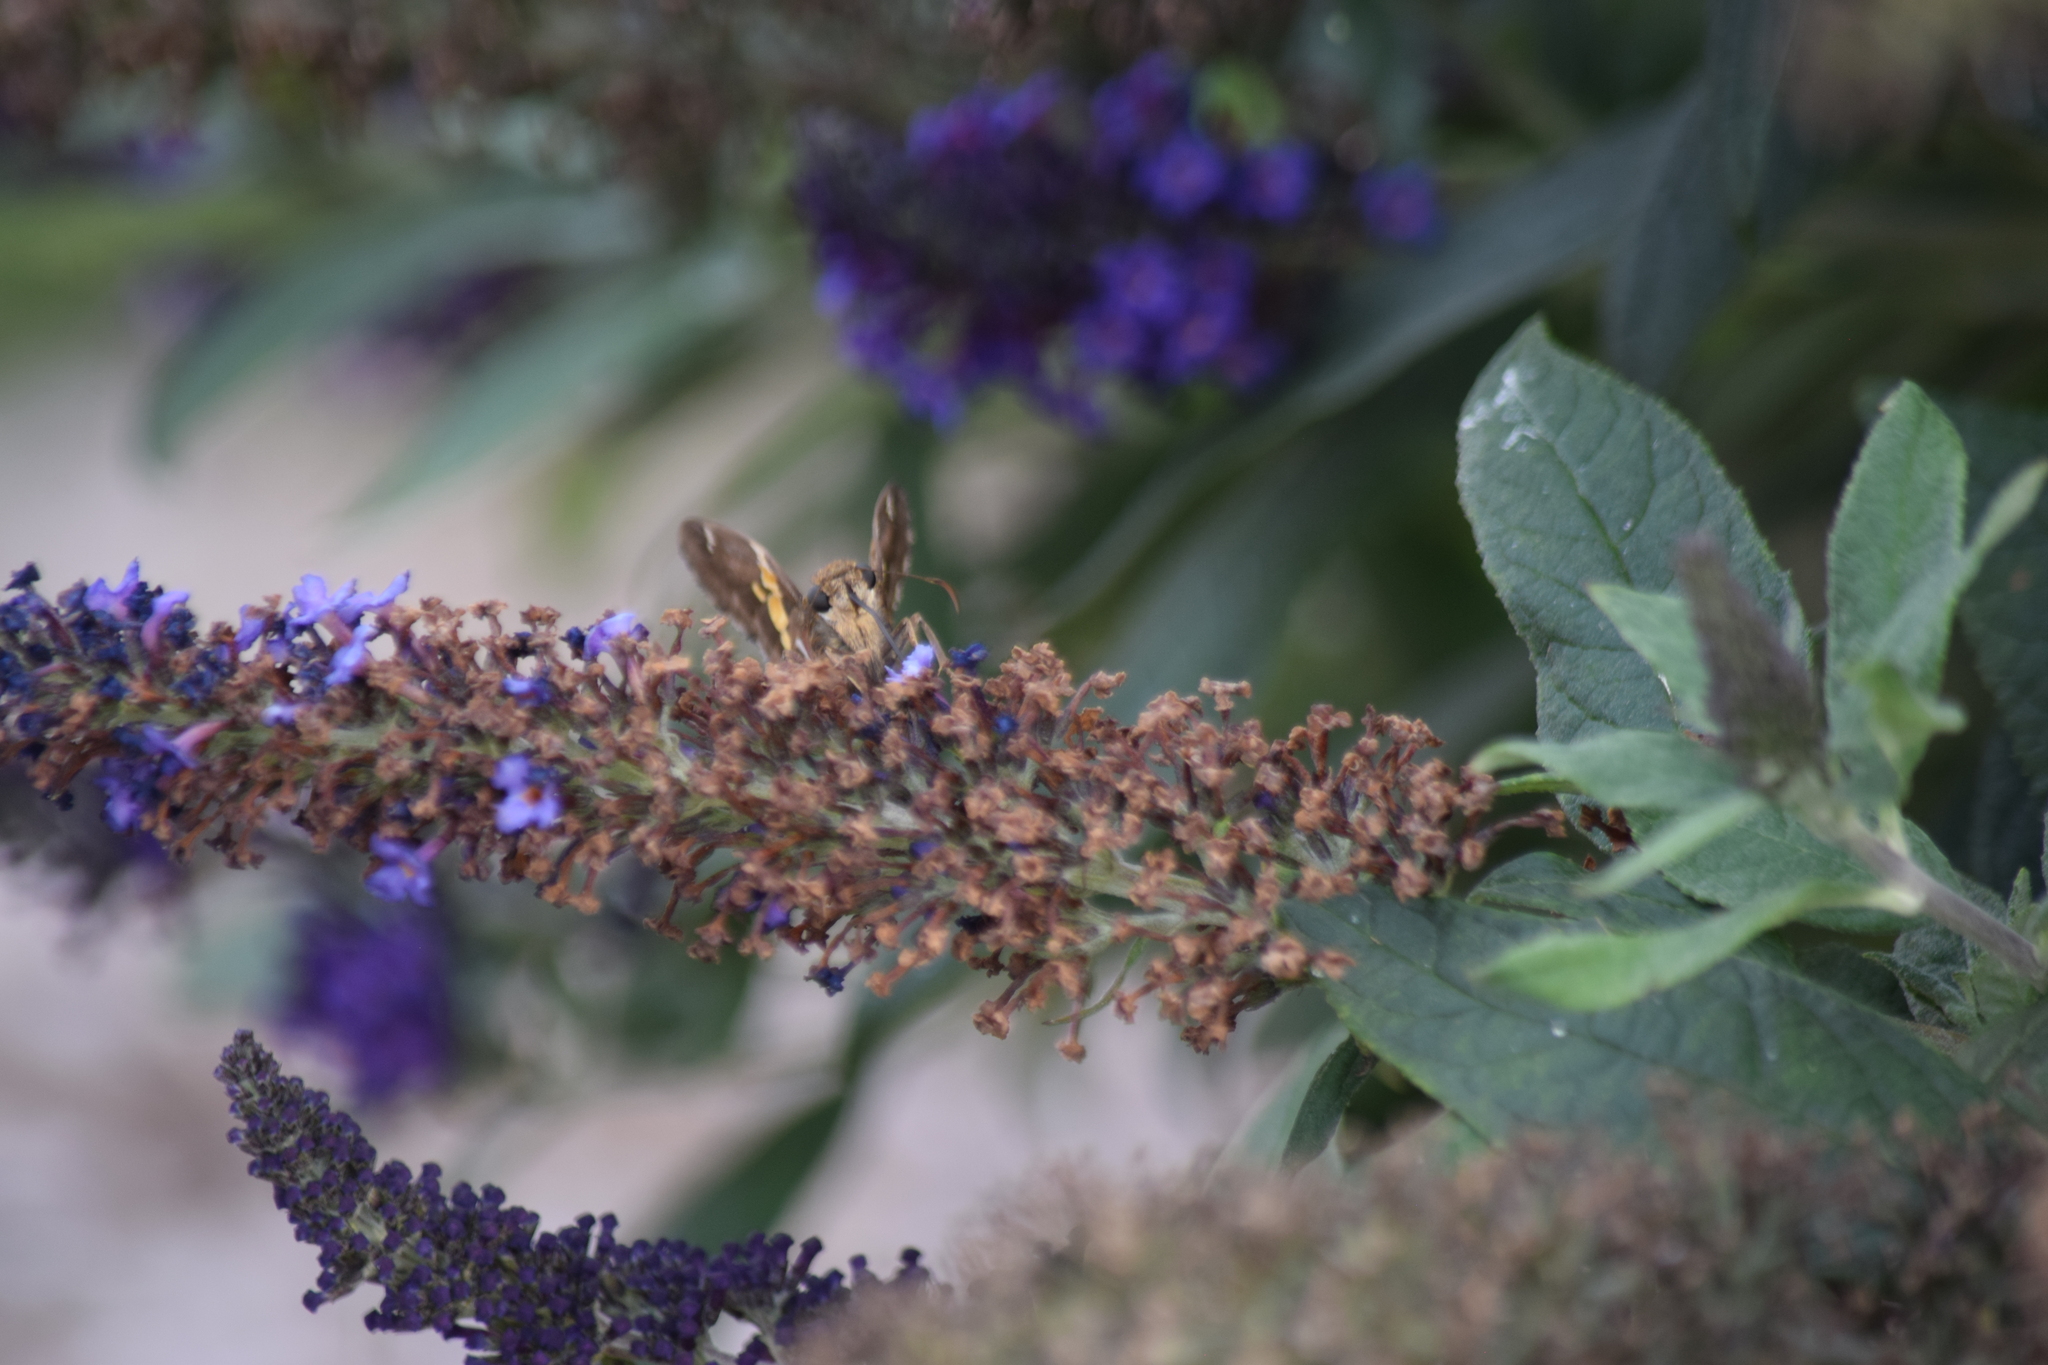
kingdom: Animalia
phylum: Arthropoda
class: Insecta
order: Lepidoptera
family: Hesperiidae
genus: Epargyreus
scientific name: Epargyreus clarus
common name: Silver-spotted skipper
